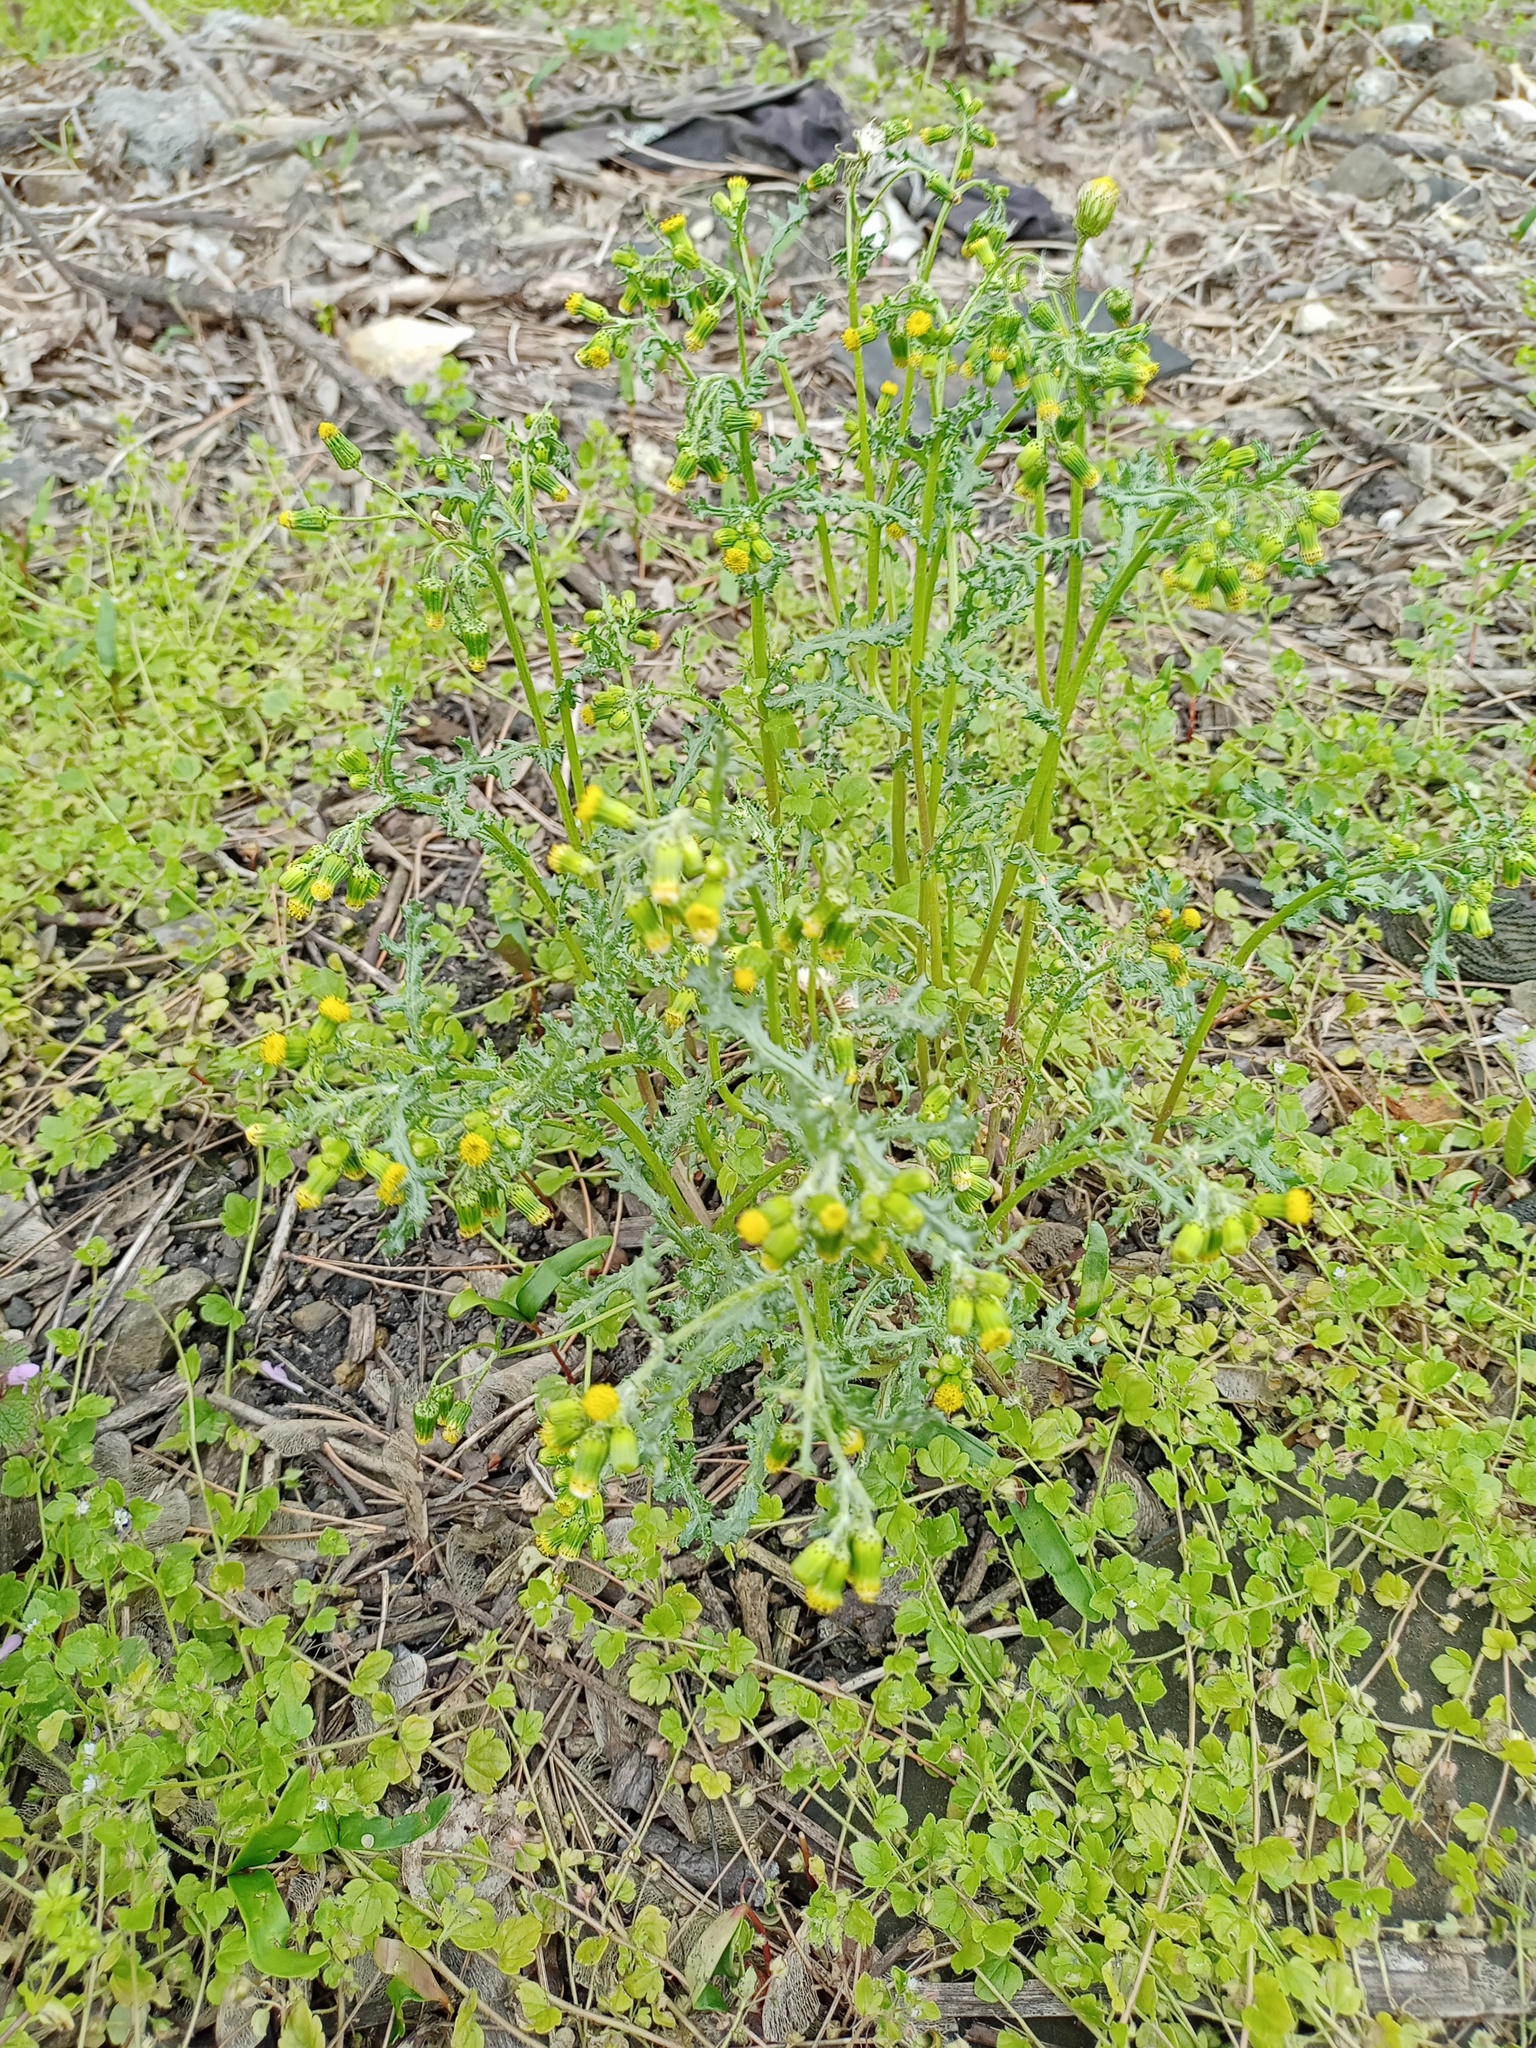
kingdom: Plantae
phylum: Tracheophyta
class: Magnoliopsida
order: Asterales
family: Asteraceae
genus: Senecio
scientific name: Senecio vulgaris
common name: Old-man-in-the-spring
